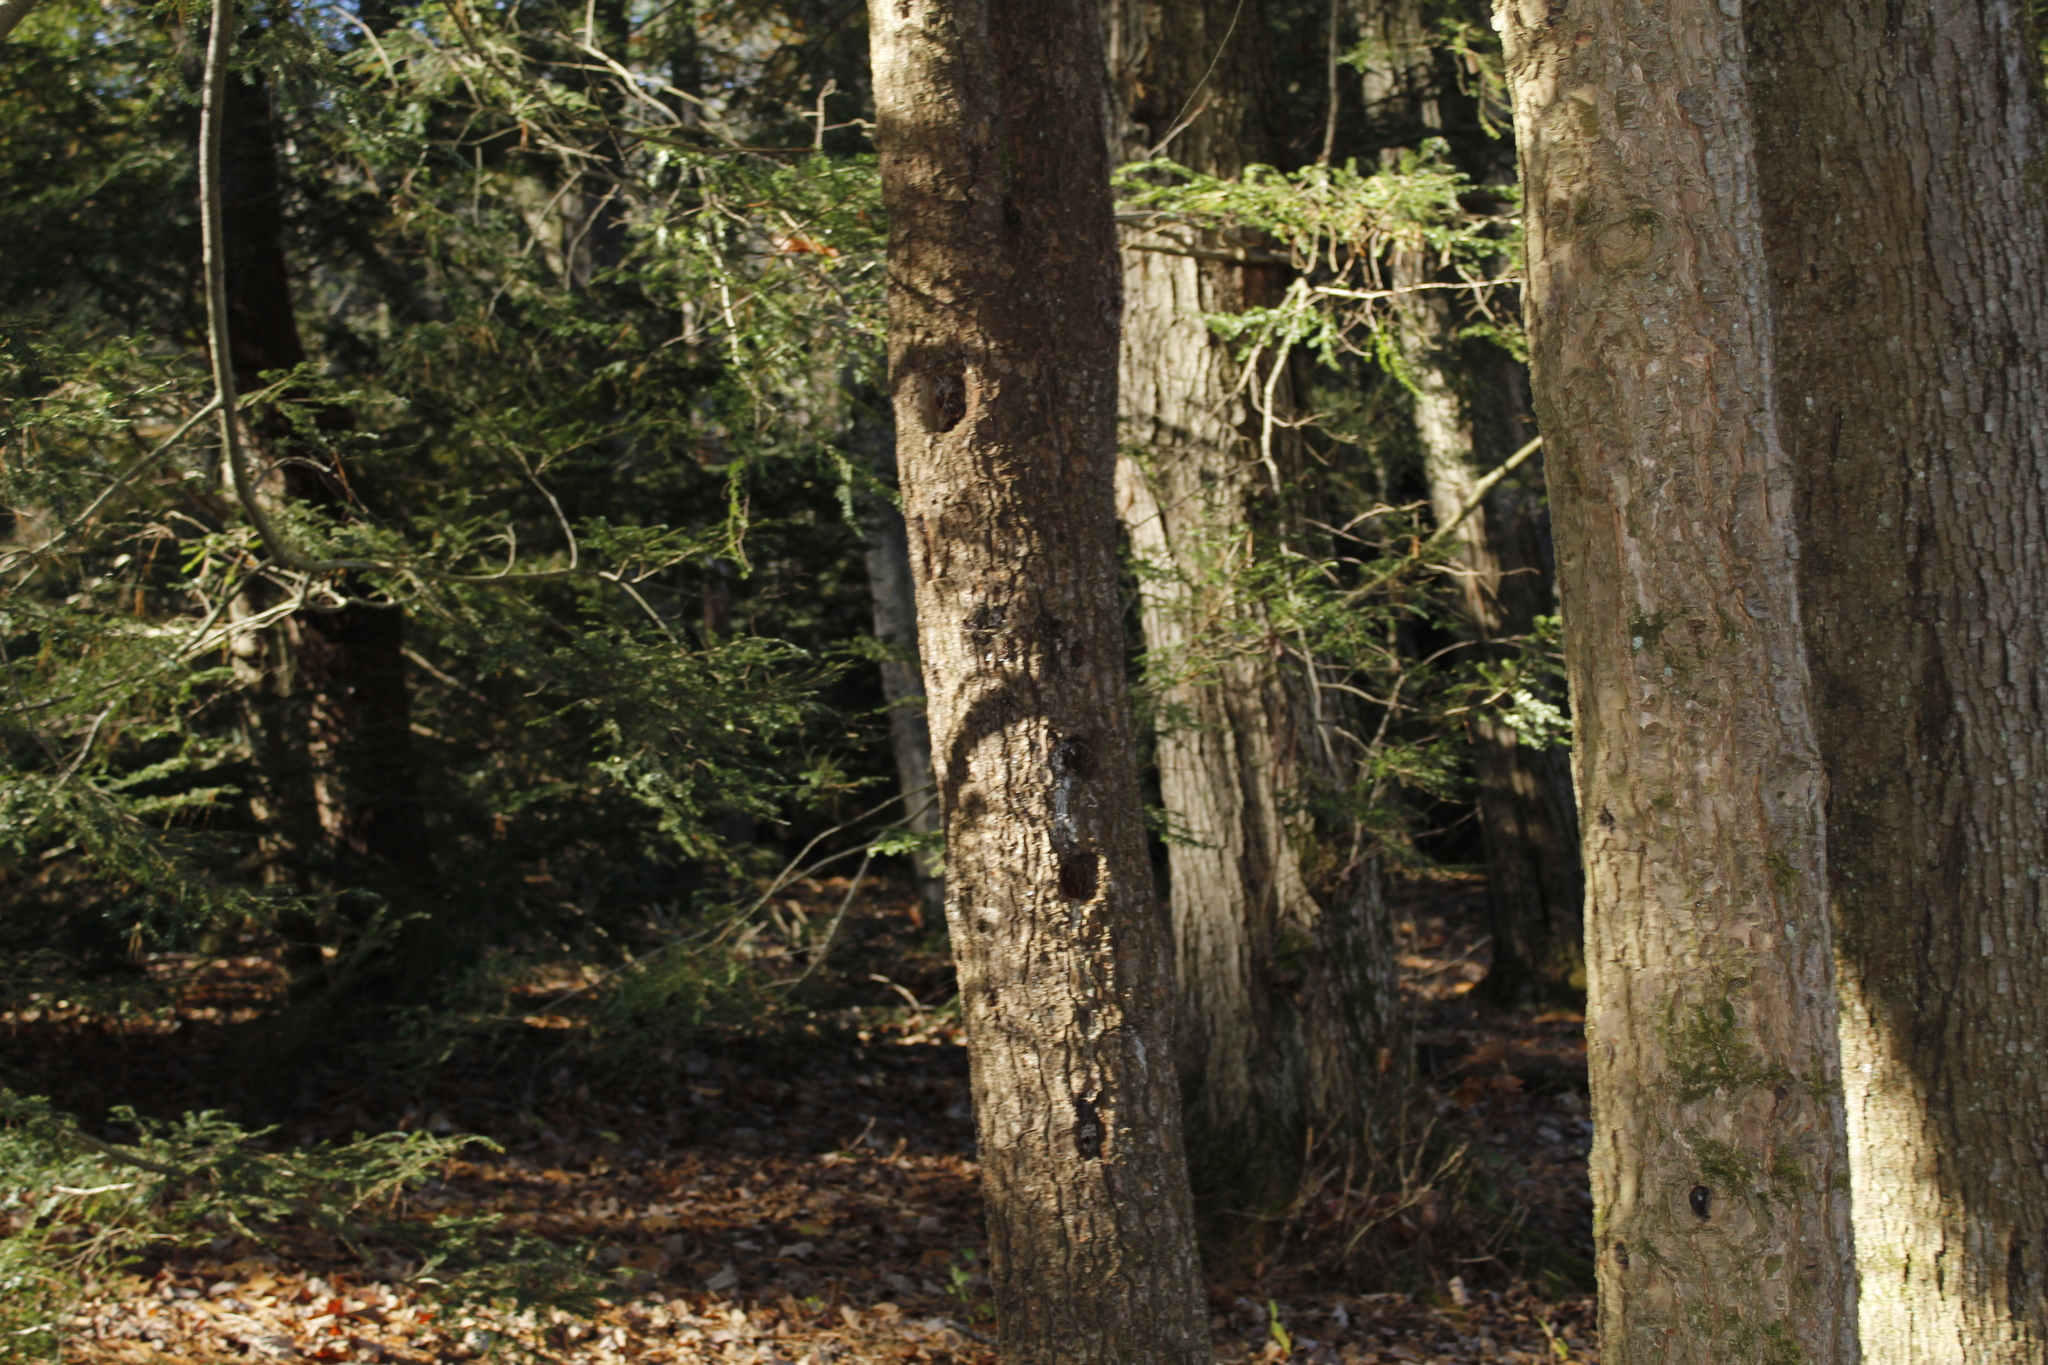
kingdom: Animalia
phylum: Chordata
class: Aves
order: Piciformes
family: Picidae
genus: Dryocopus
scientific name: Dryocopus pileatus
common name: Pileated woodpecker
